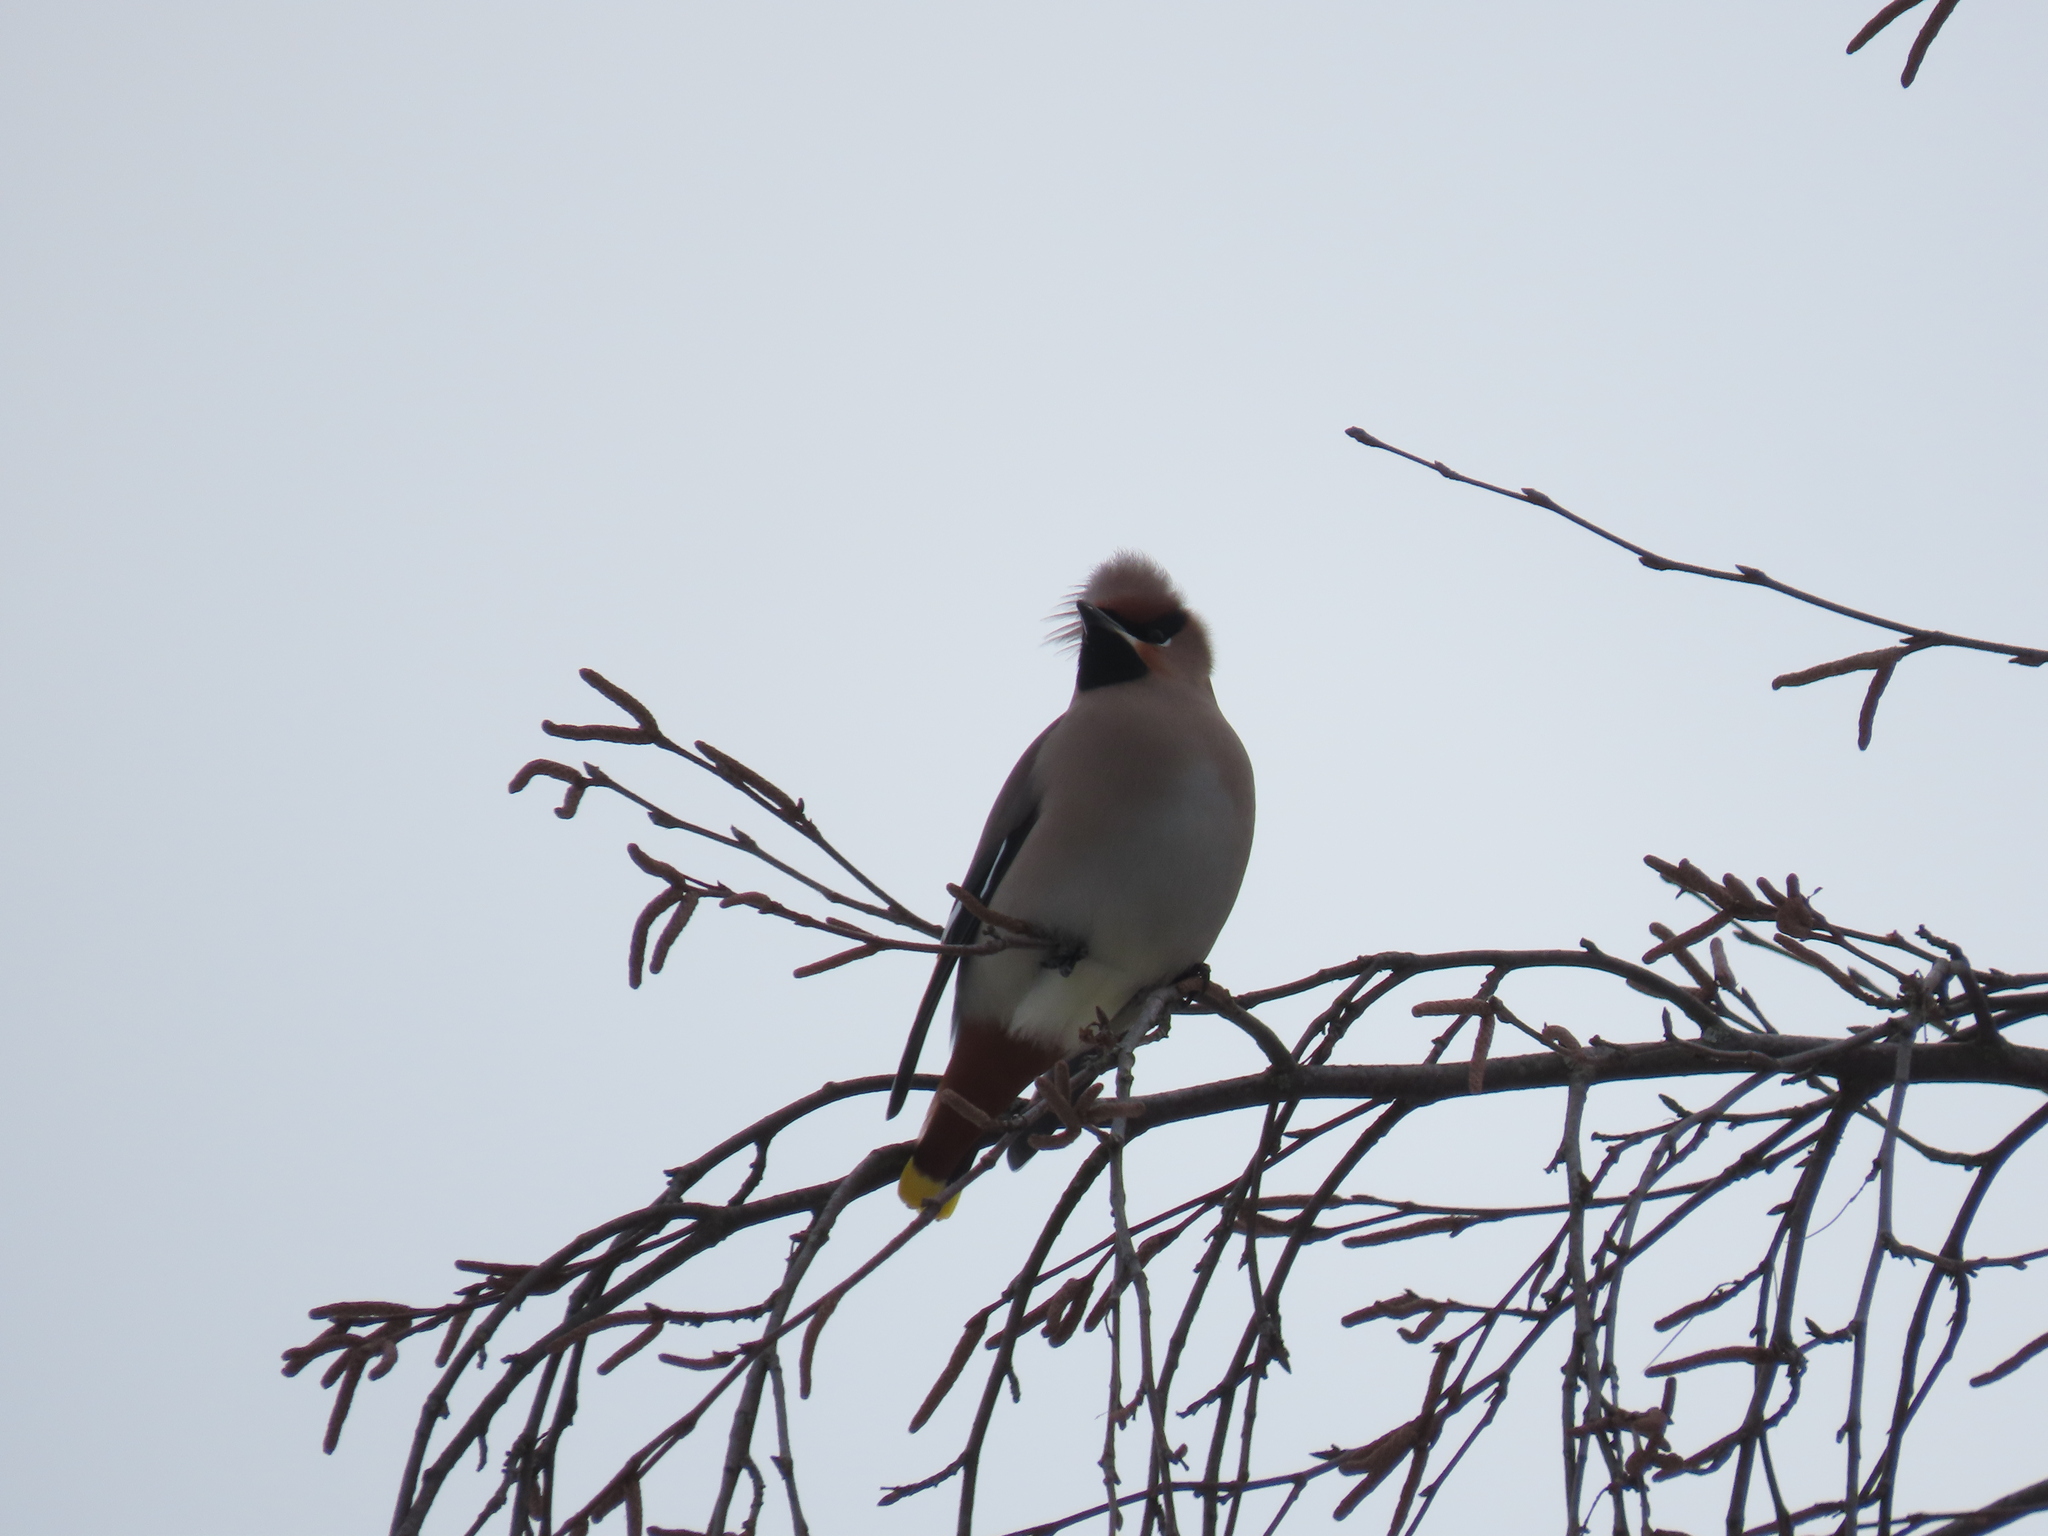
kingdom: Animalia
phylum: Chordata
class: Aves
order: Passeriformes
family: Bombycillidae
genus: Bombycilla
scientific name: Bombycilla garrulus
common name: Bohemian waxwing
